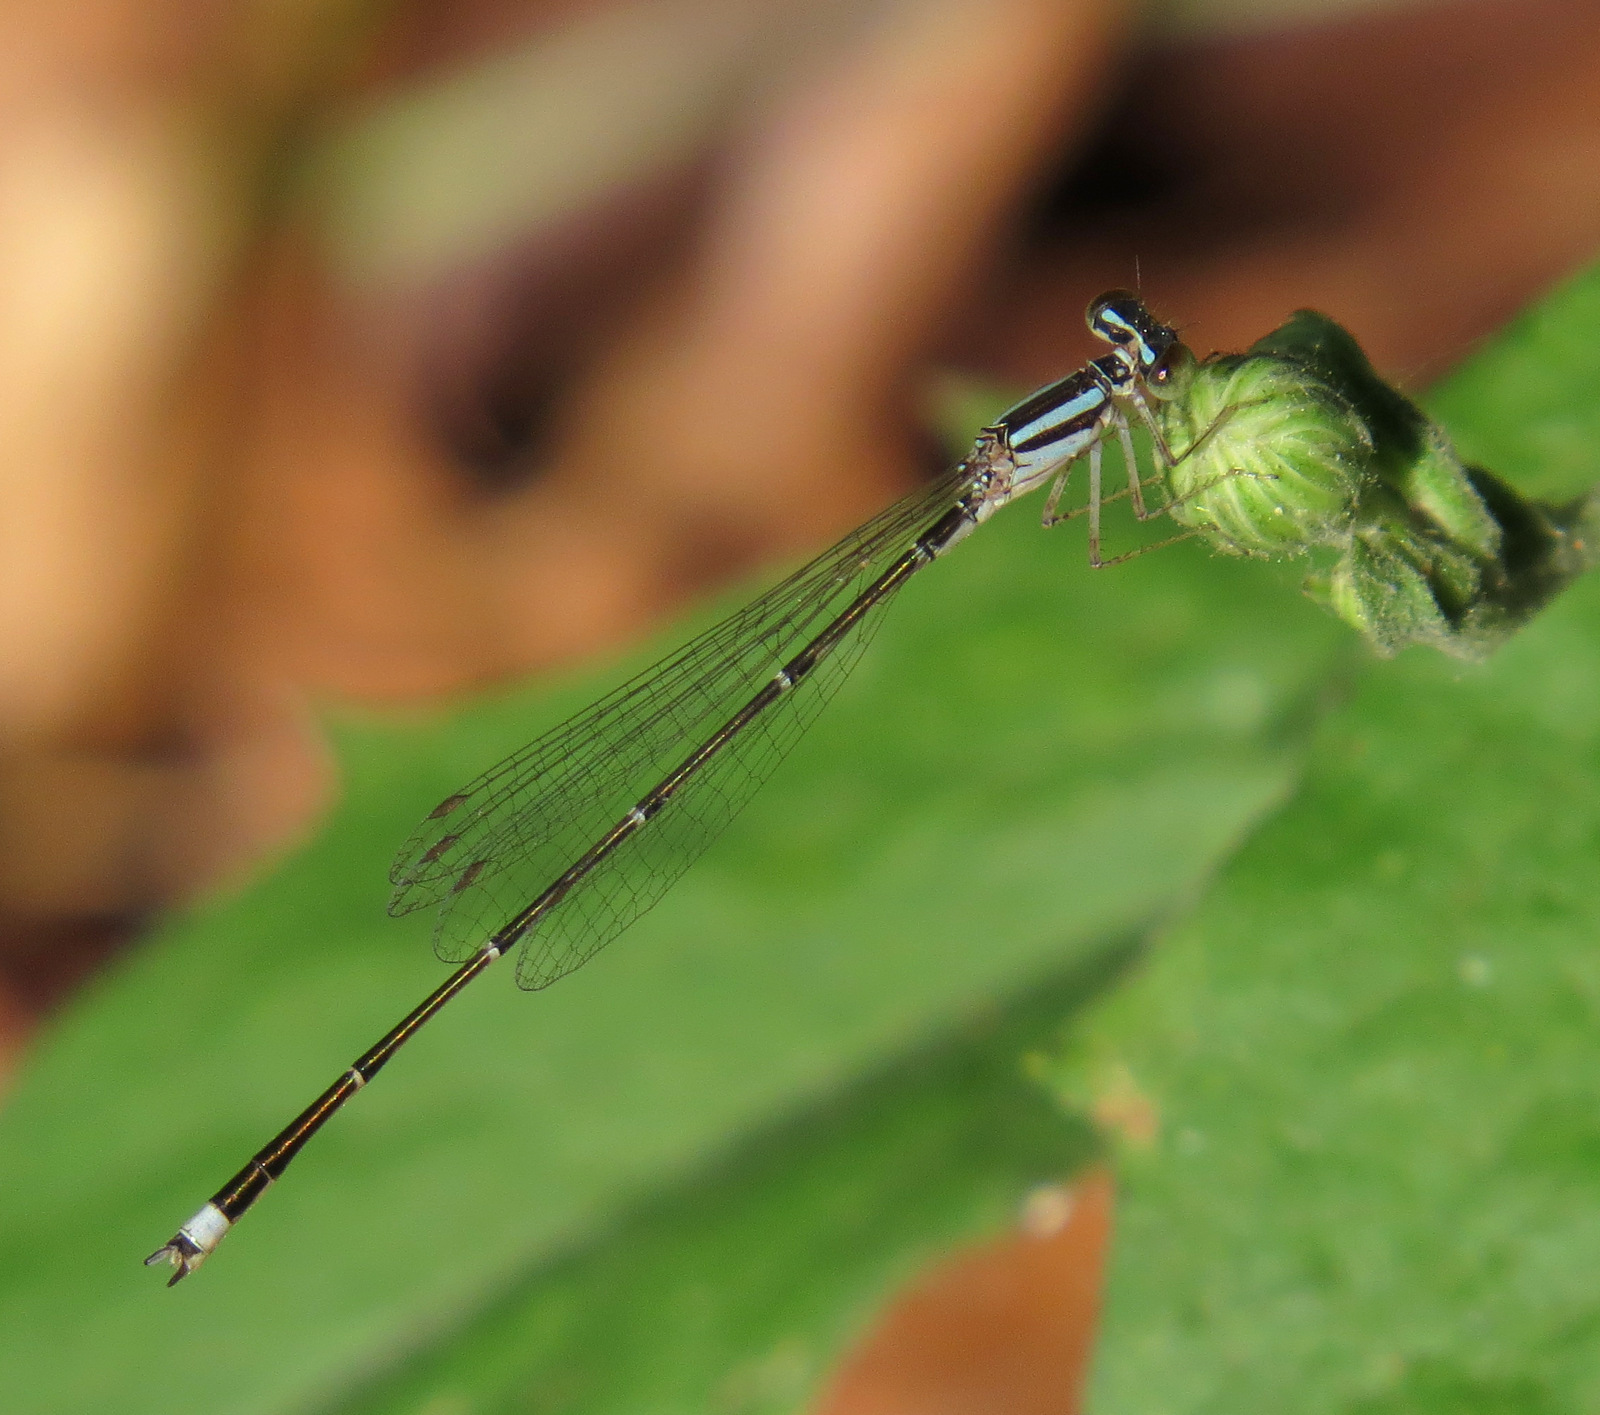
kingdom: Animalia
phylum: Arthropoda
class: Insecta
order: Odonata
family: Coenagrionidae
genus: Enallagma
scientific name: Enallagma signatum
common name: Orange bluet
